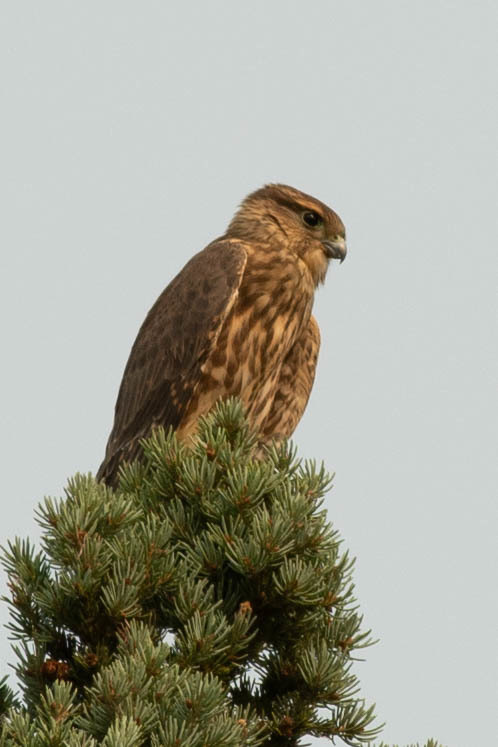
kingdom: Animalia
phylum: Chordata
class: Aves
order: Falconiformes
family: Falconidae
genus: Falco
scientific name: Falco columbarius
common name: Merlin
